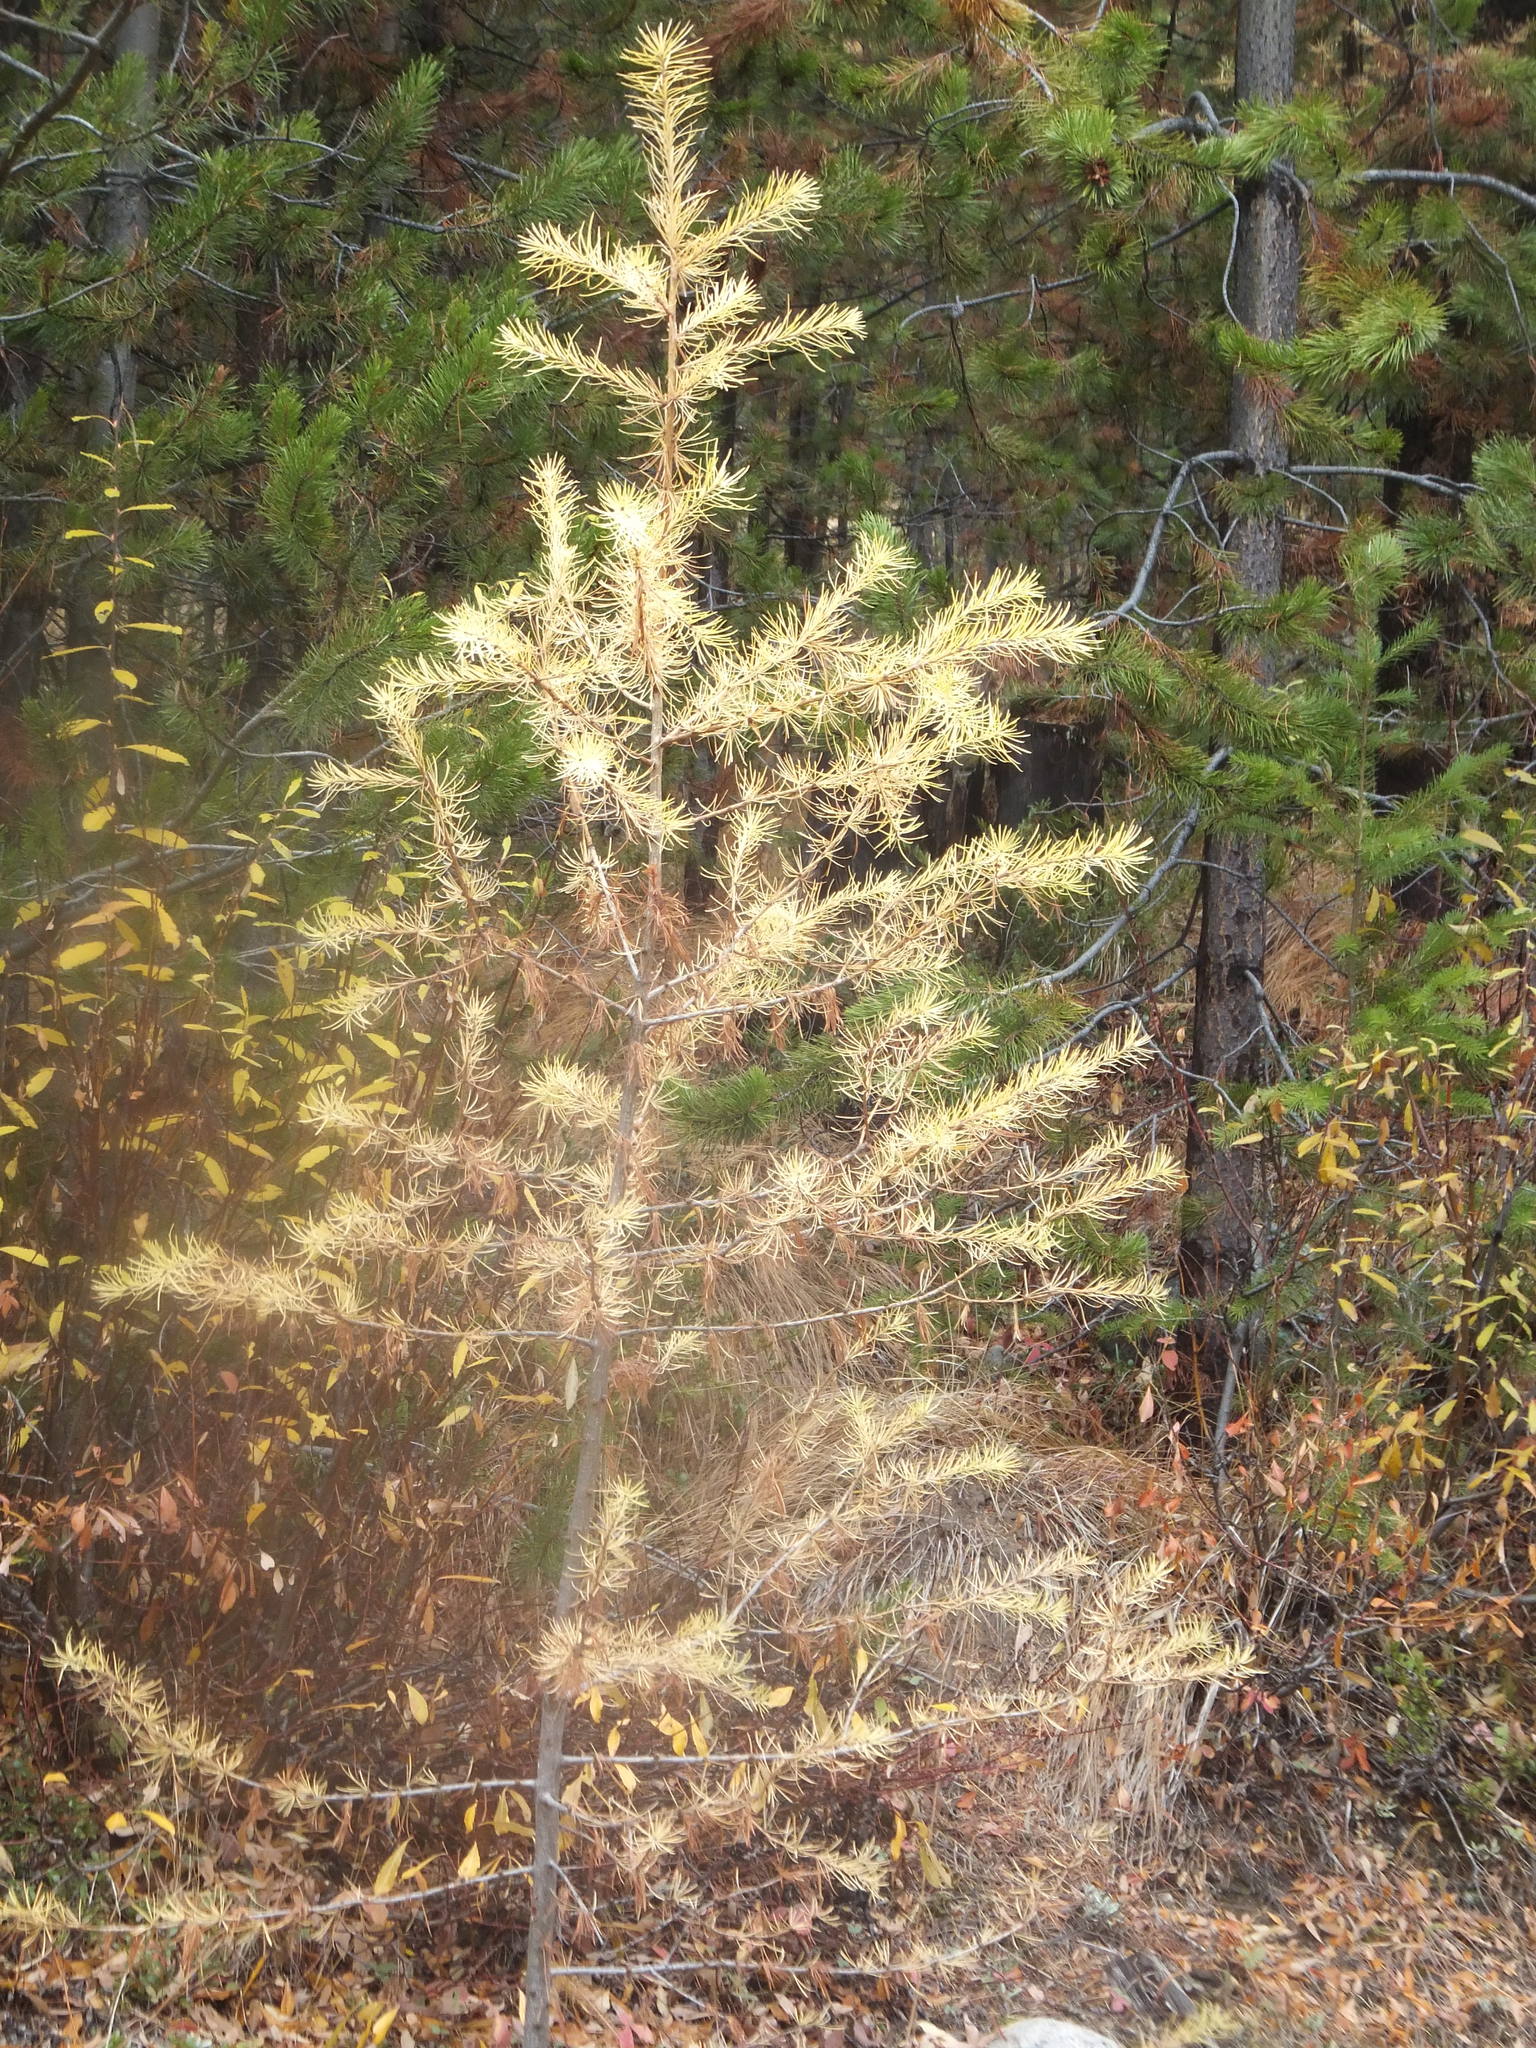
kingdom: Plantae
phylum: Tracheophyta
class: Pinopsida
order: Pinales
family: Pinaceae
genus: Larix
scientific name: Larix occidentalis
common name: Western larch
